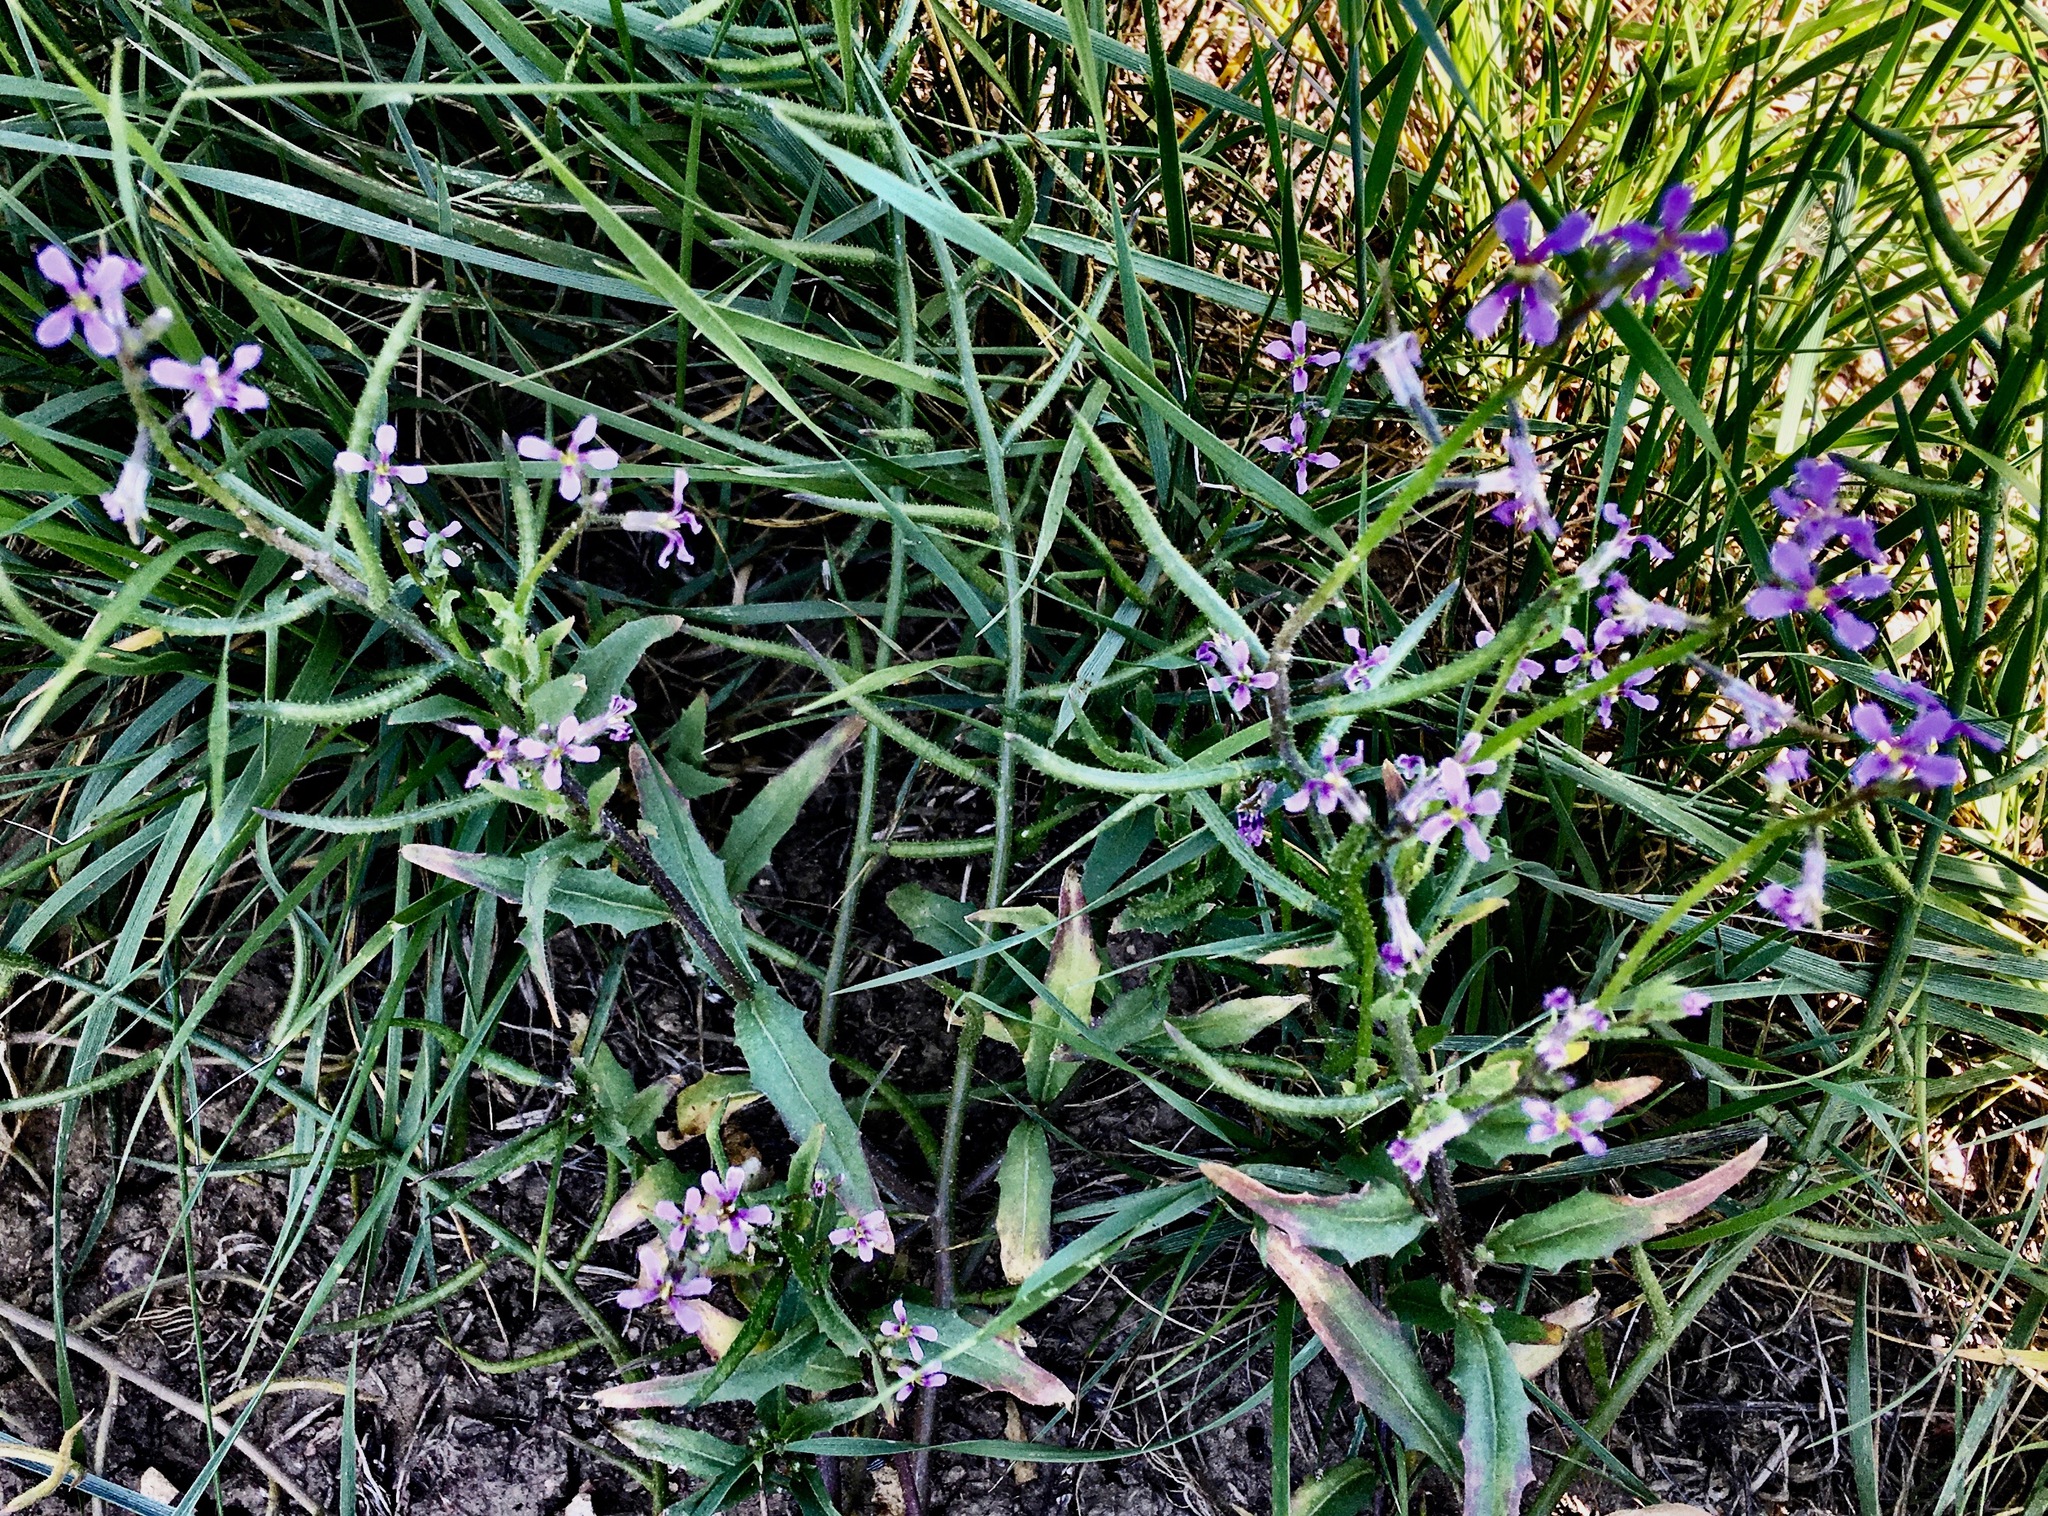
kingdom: Plantae
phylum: Tracheophyta
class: Magnoliopsida
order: Brassicales
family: Brassicaceae
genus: Chorispora
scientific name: Chorispora tenella
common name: Crossflower
